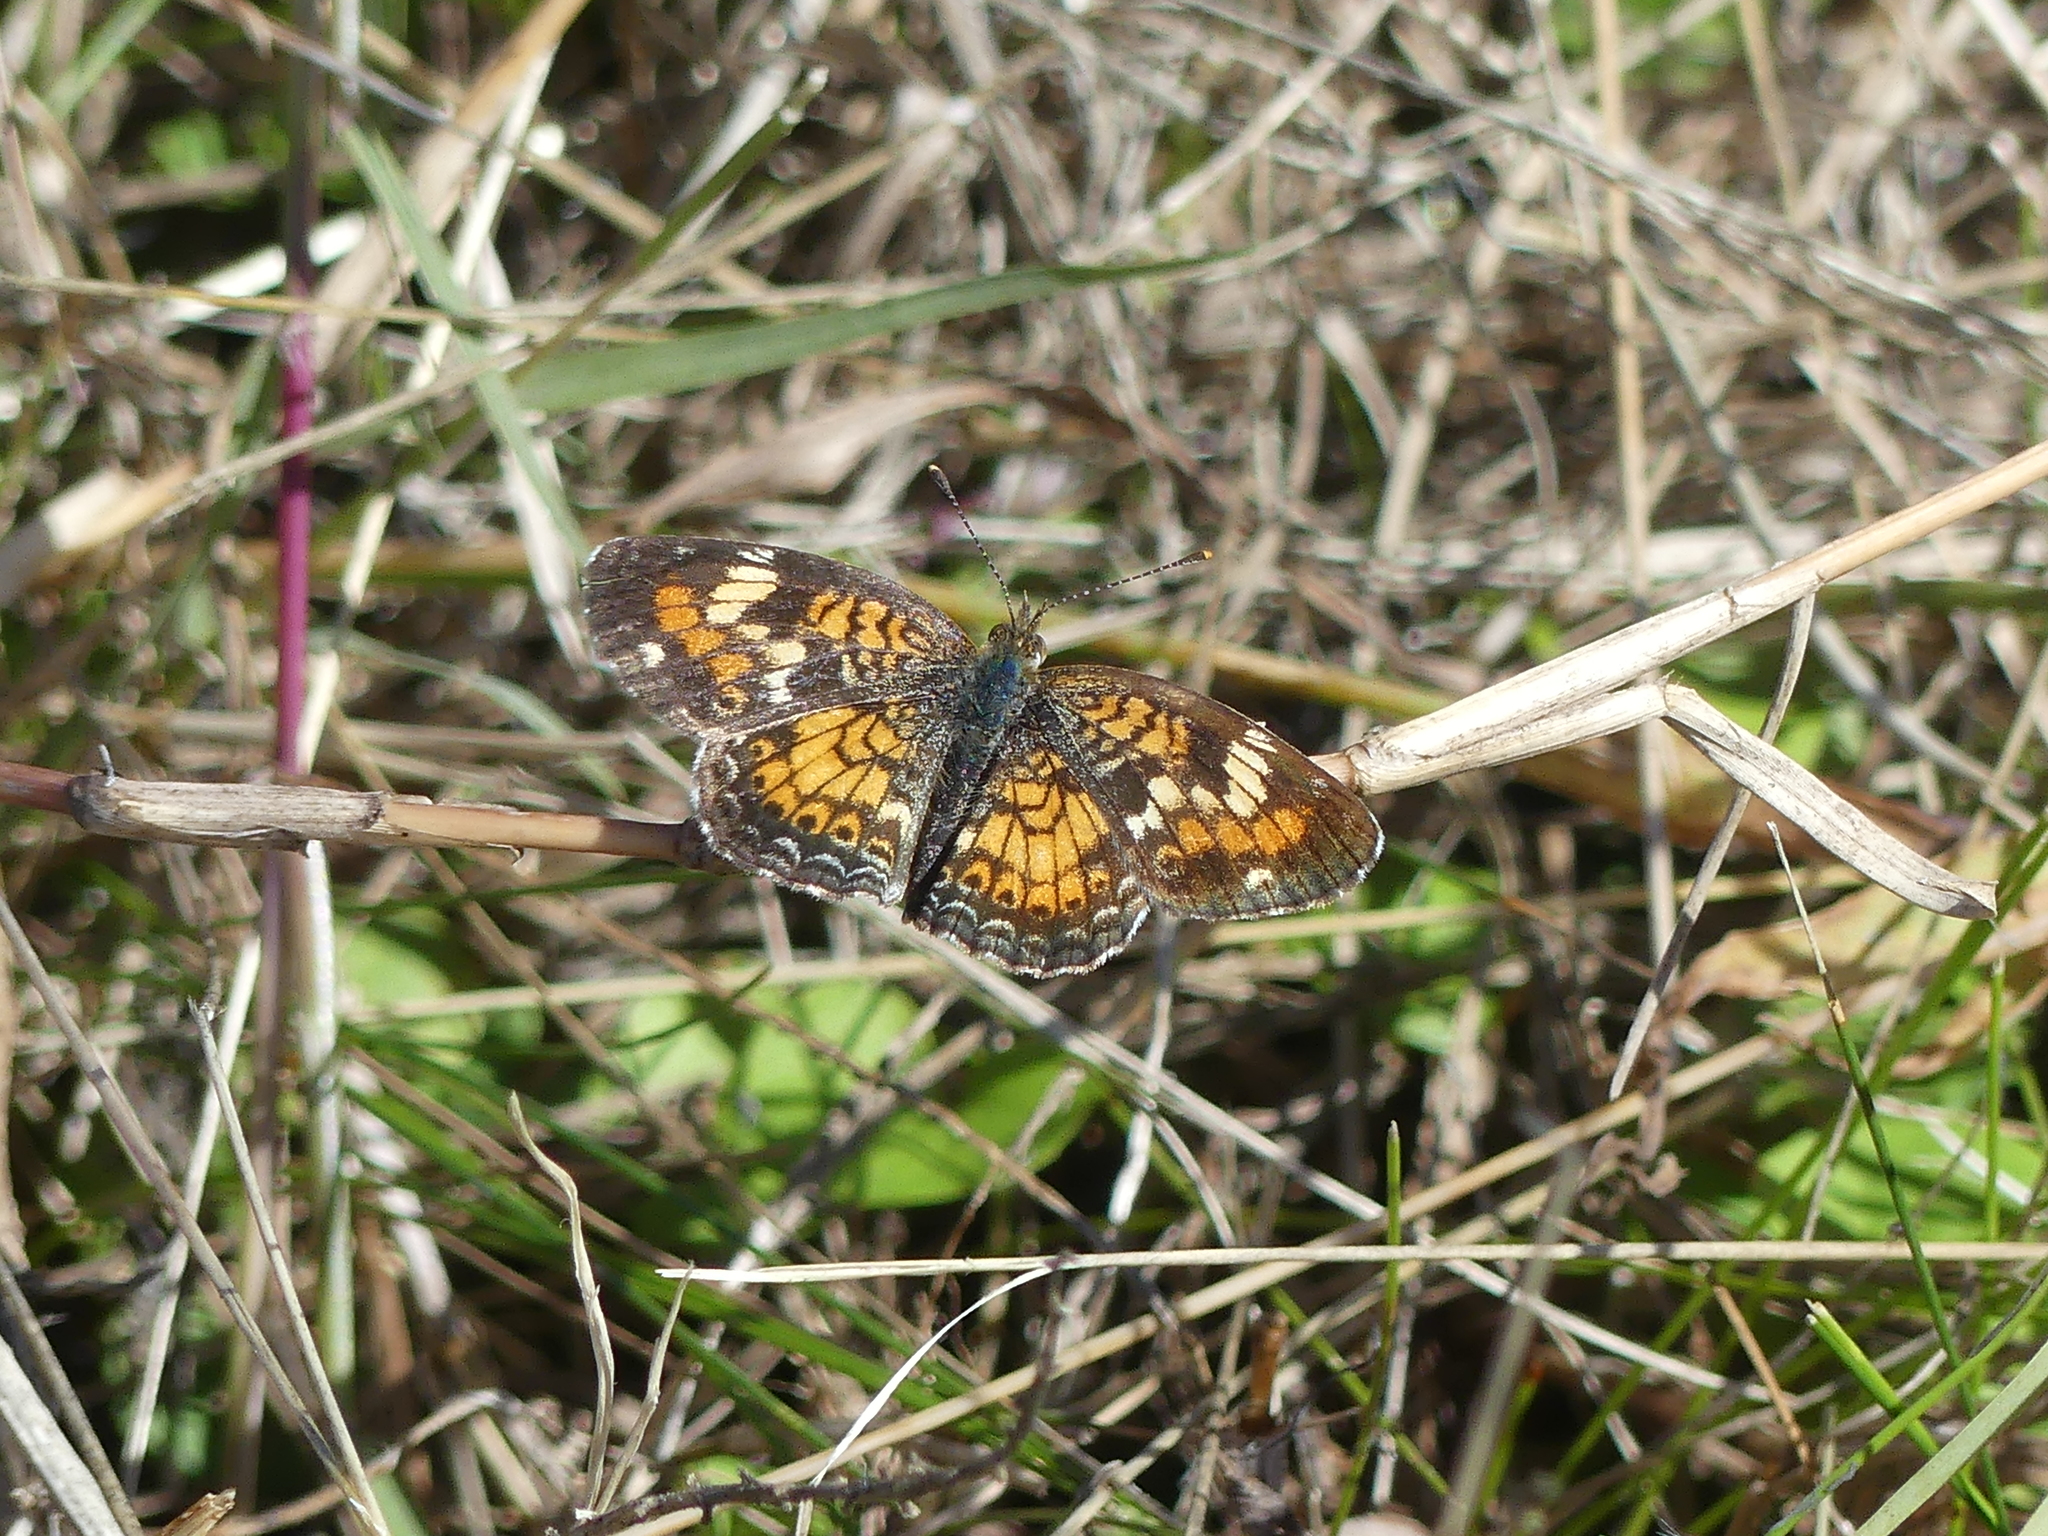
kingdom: Animalia
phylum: Arthropoda
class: Insecta
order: Lepidoptera
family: Nymphalidae
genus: Phyciodes
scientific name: Phyciodes phaon
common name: Phaon crescent
